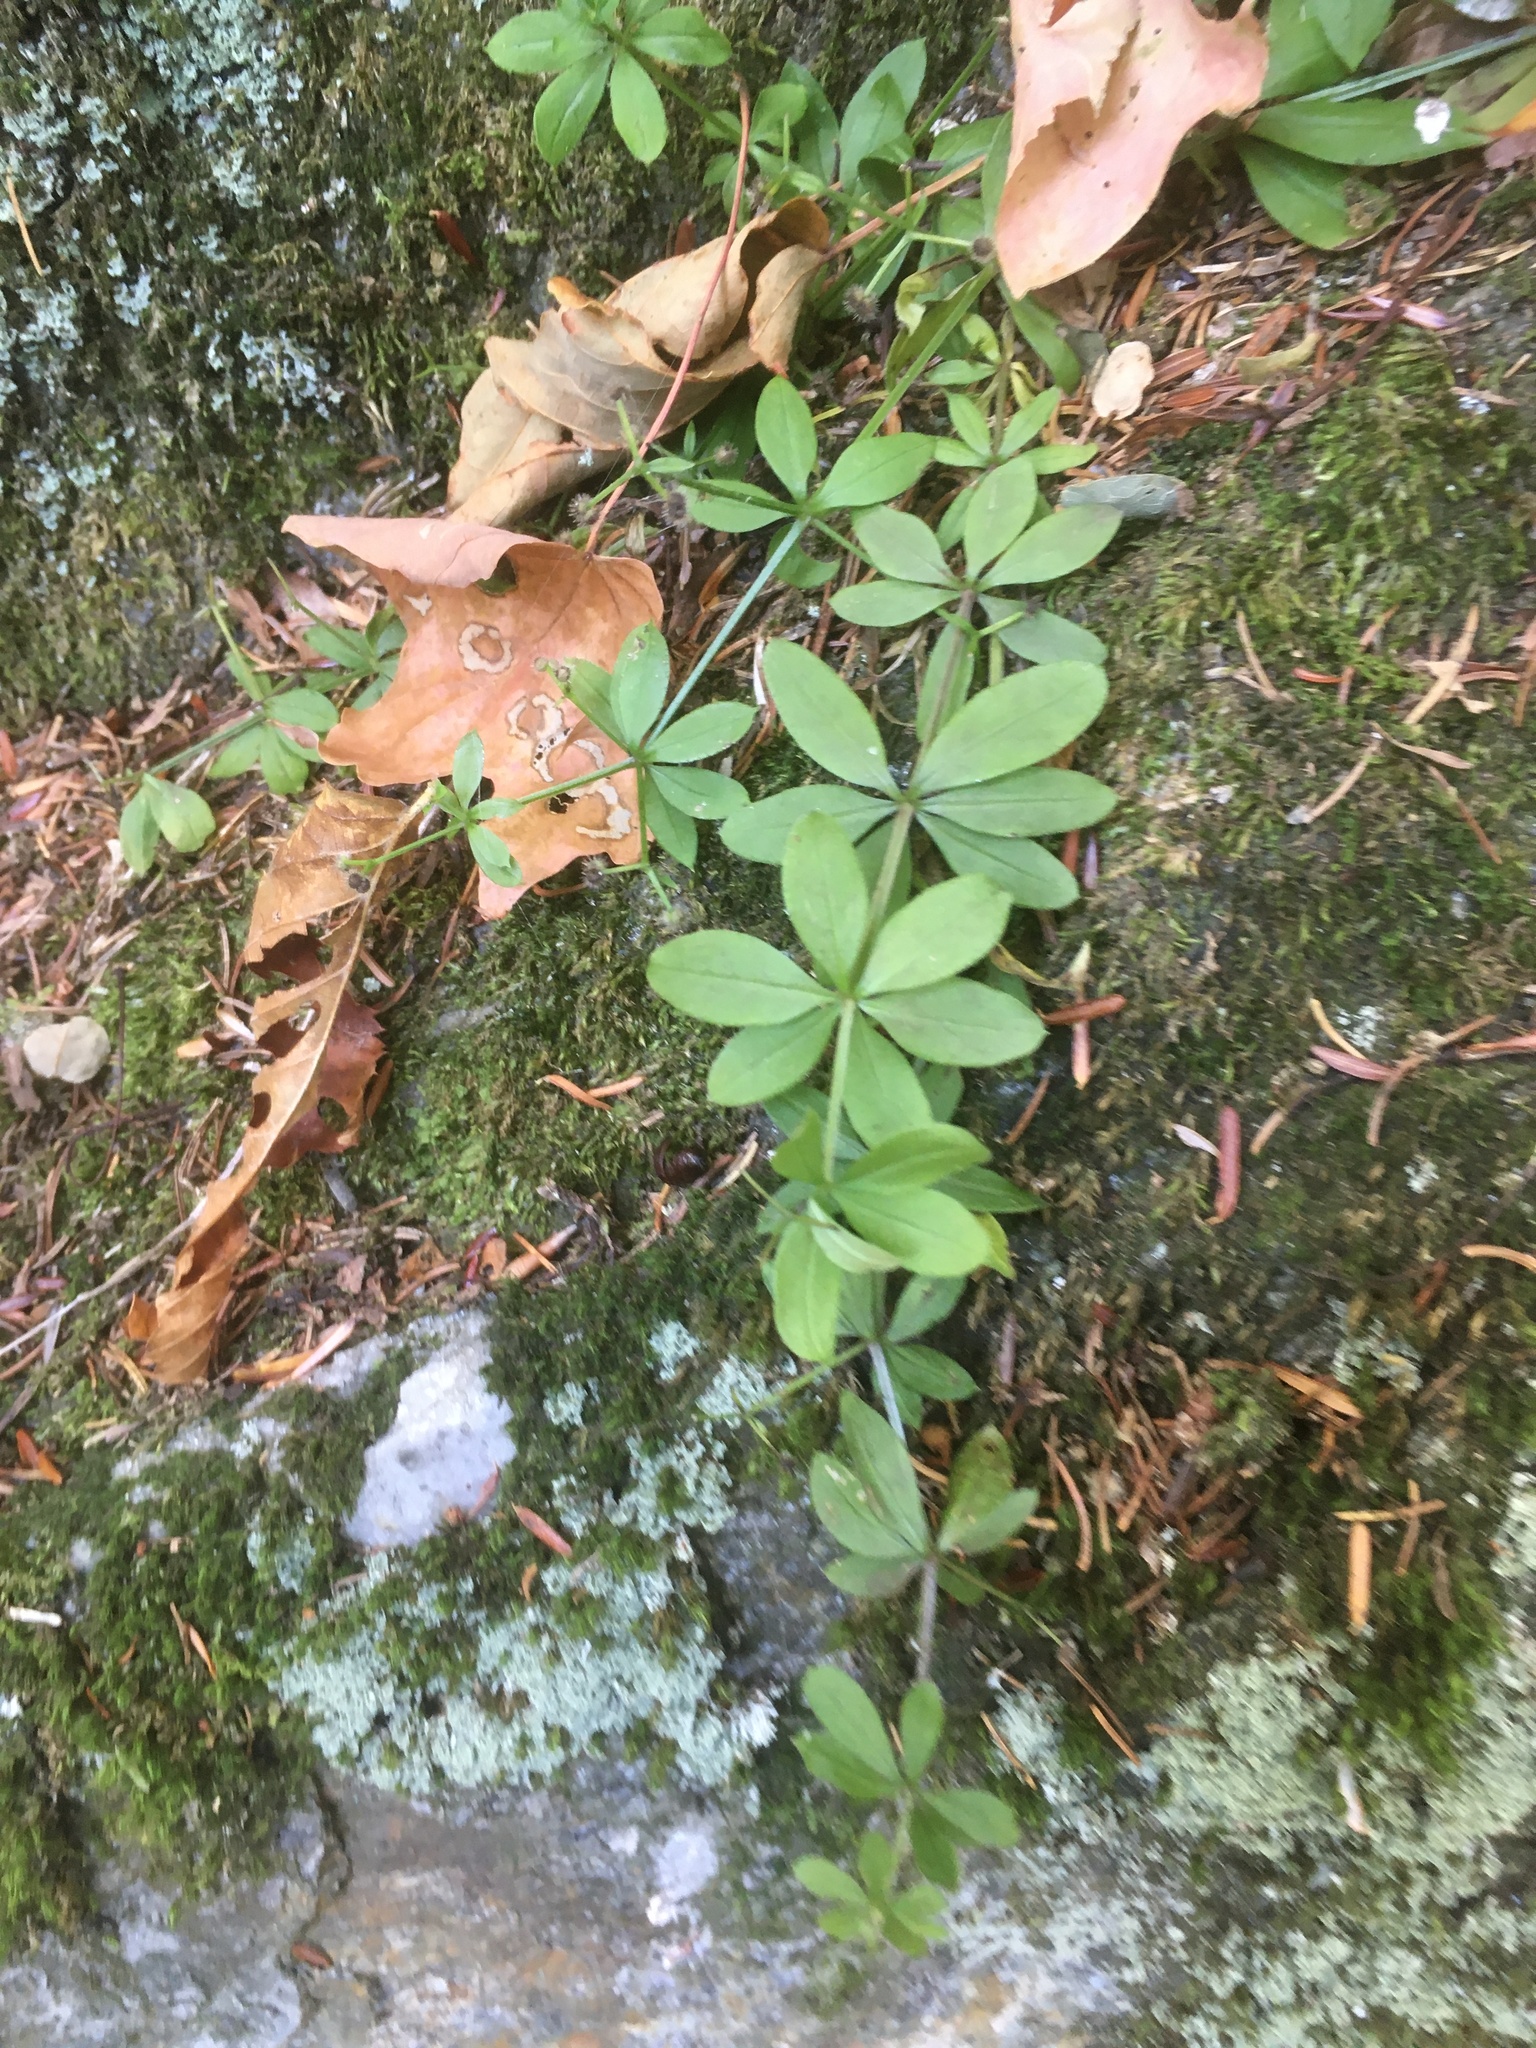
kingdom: Plantae
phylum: Tracheophyta
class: Magnoliopsida
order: Gentianales
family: Rubiaceae
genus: Galium
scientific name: Galium triflorum
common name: Fragrant bedstraw
